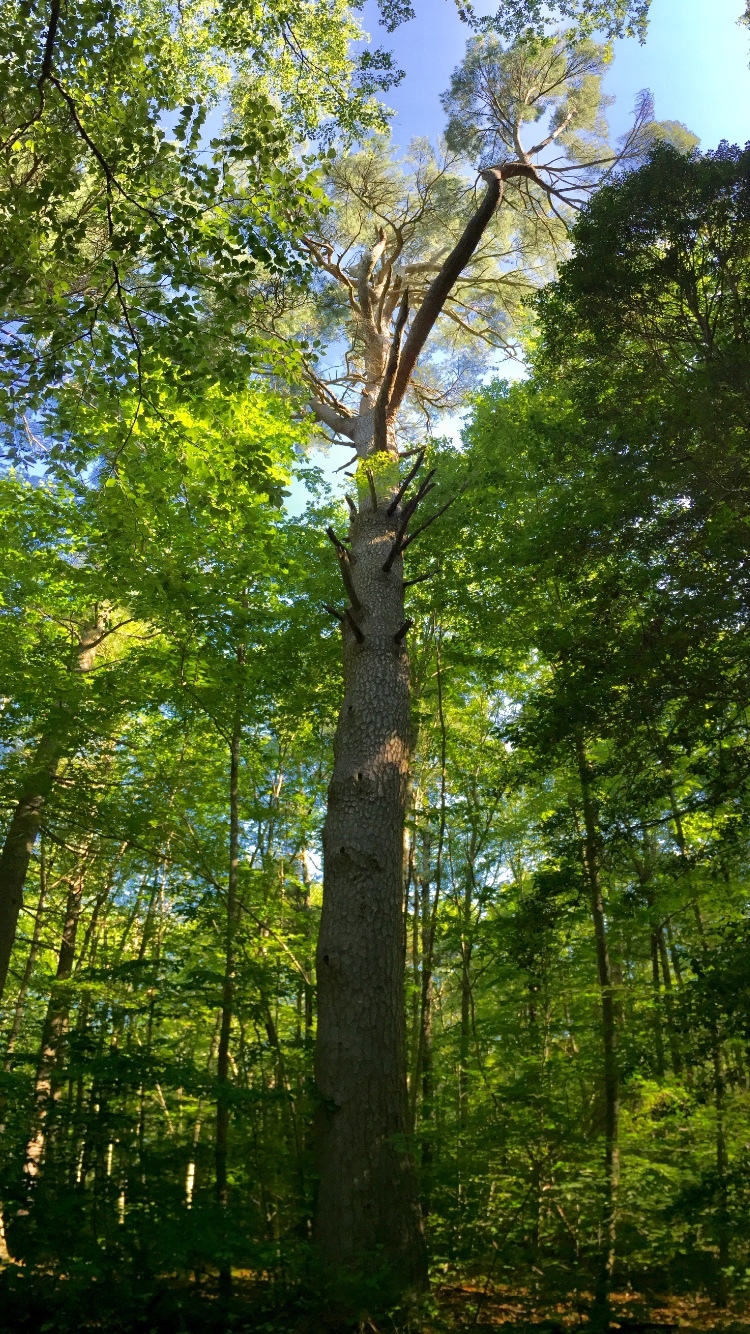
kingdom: Plantae
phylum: Tracheophyta
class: Pinopsida
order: Pinales
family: Pinaceae
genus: Pinus
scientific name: Pinus strobus
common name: Weymouth pine
